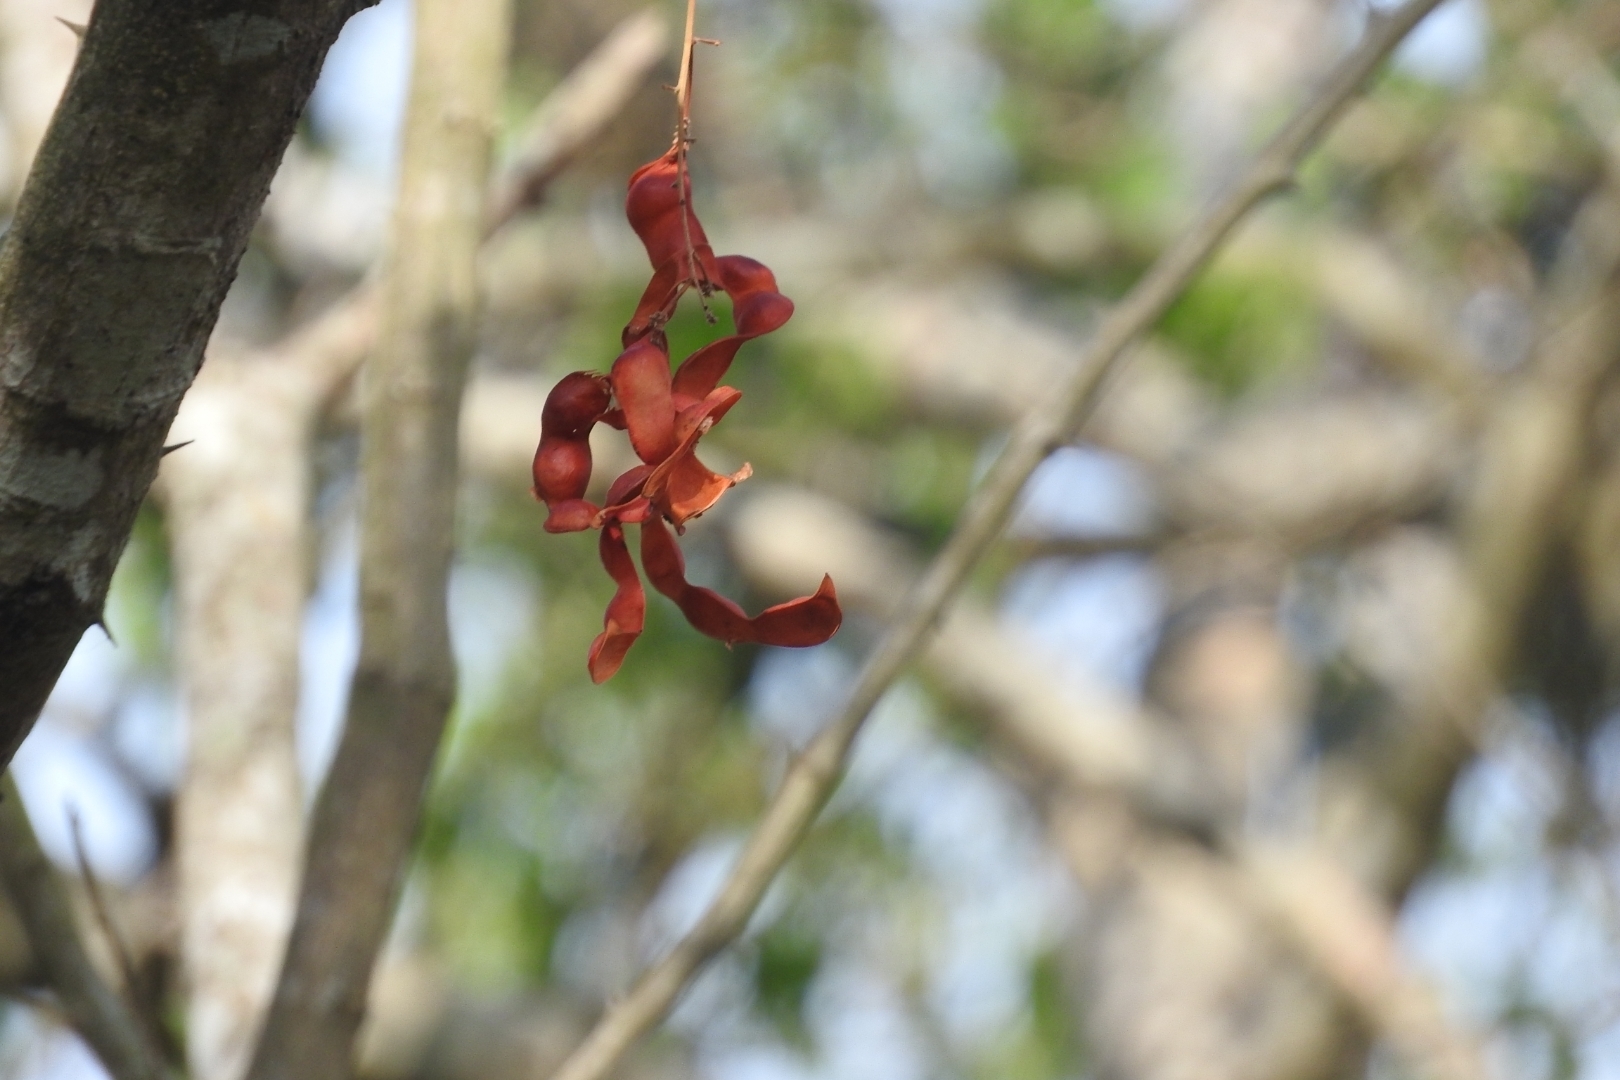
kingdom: Plantae
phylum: Tracheophyta
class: Magnoliopsida
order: Fabales
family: Fabaceae
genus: Pithecellobium
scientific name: Pithecellobium dulce
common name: Monkeypod
